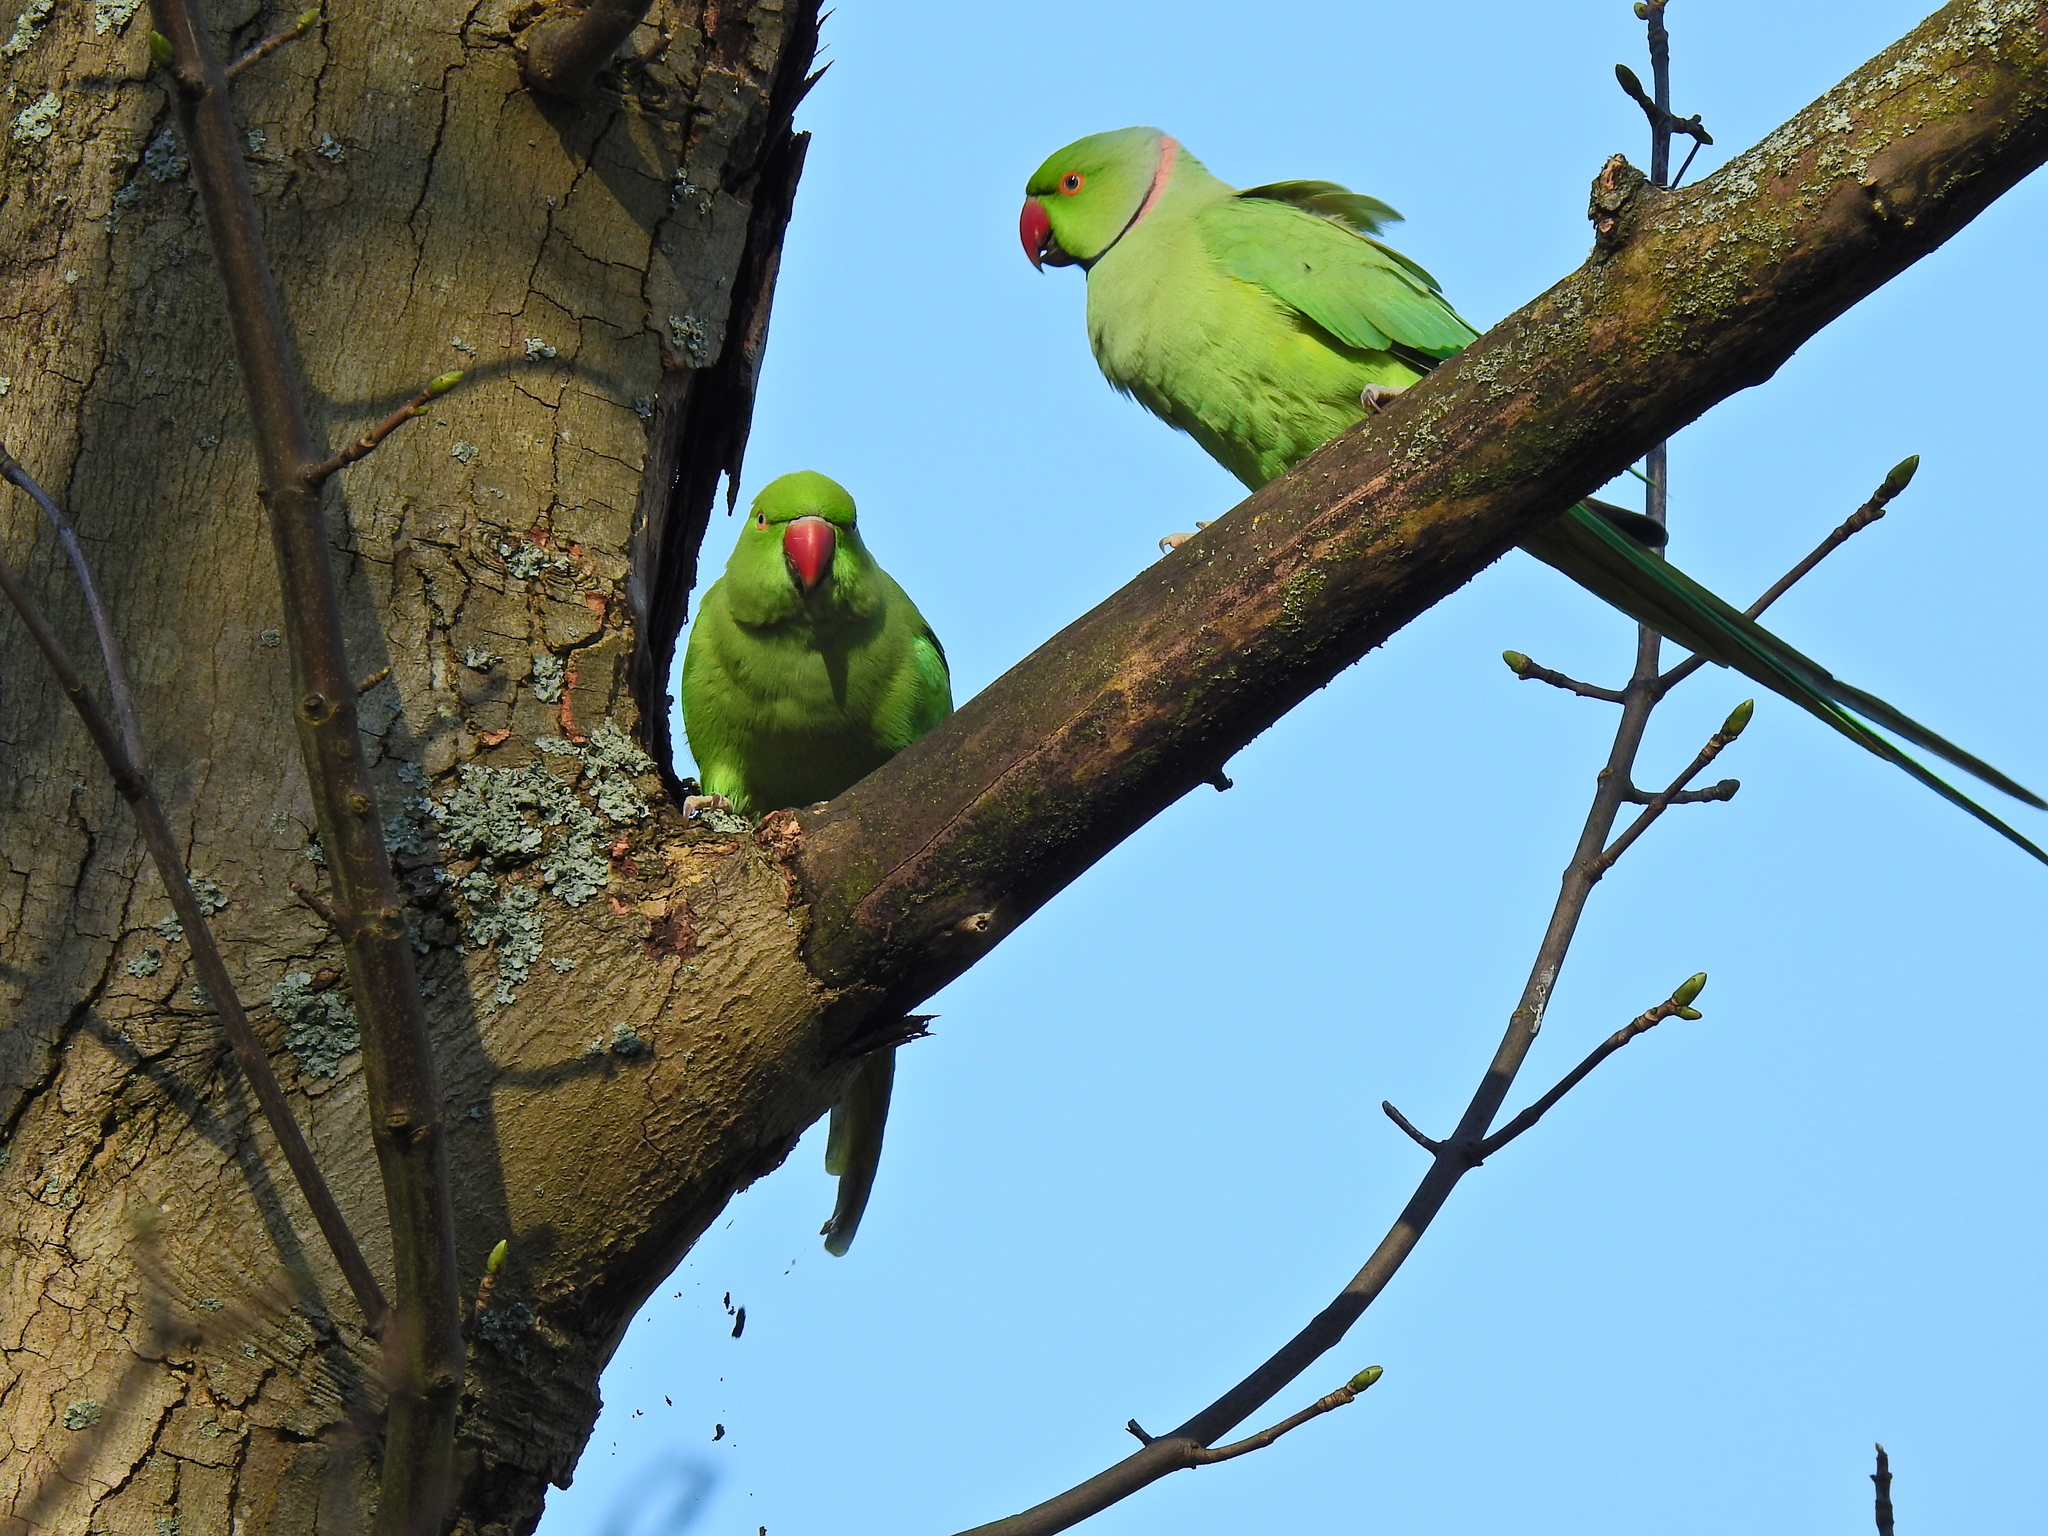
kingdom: Animalia
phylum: Chordata
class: Aves
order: Psittaciformes
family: Psittacidae
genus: Psittacula
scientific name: Psittacula krameri
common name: Rose-ringed parakeet
